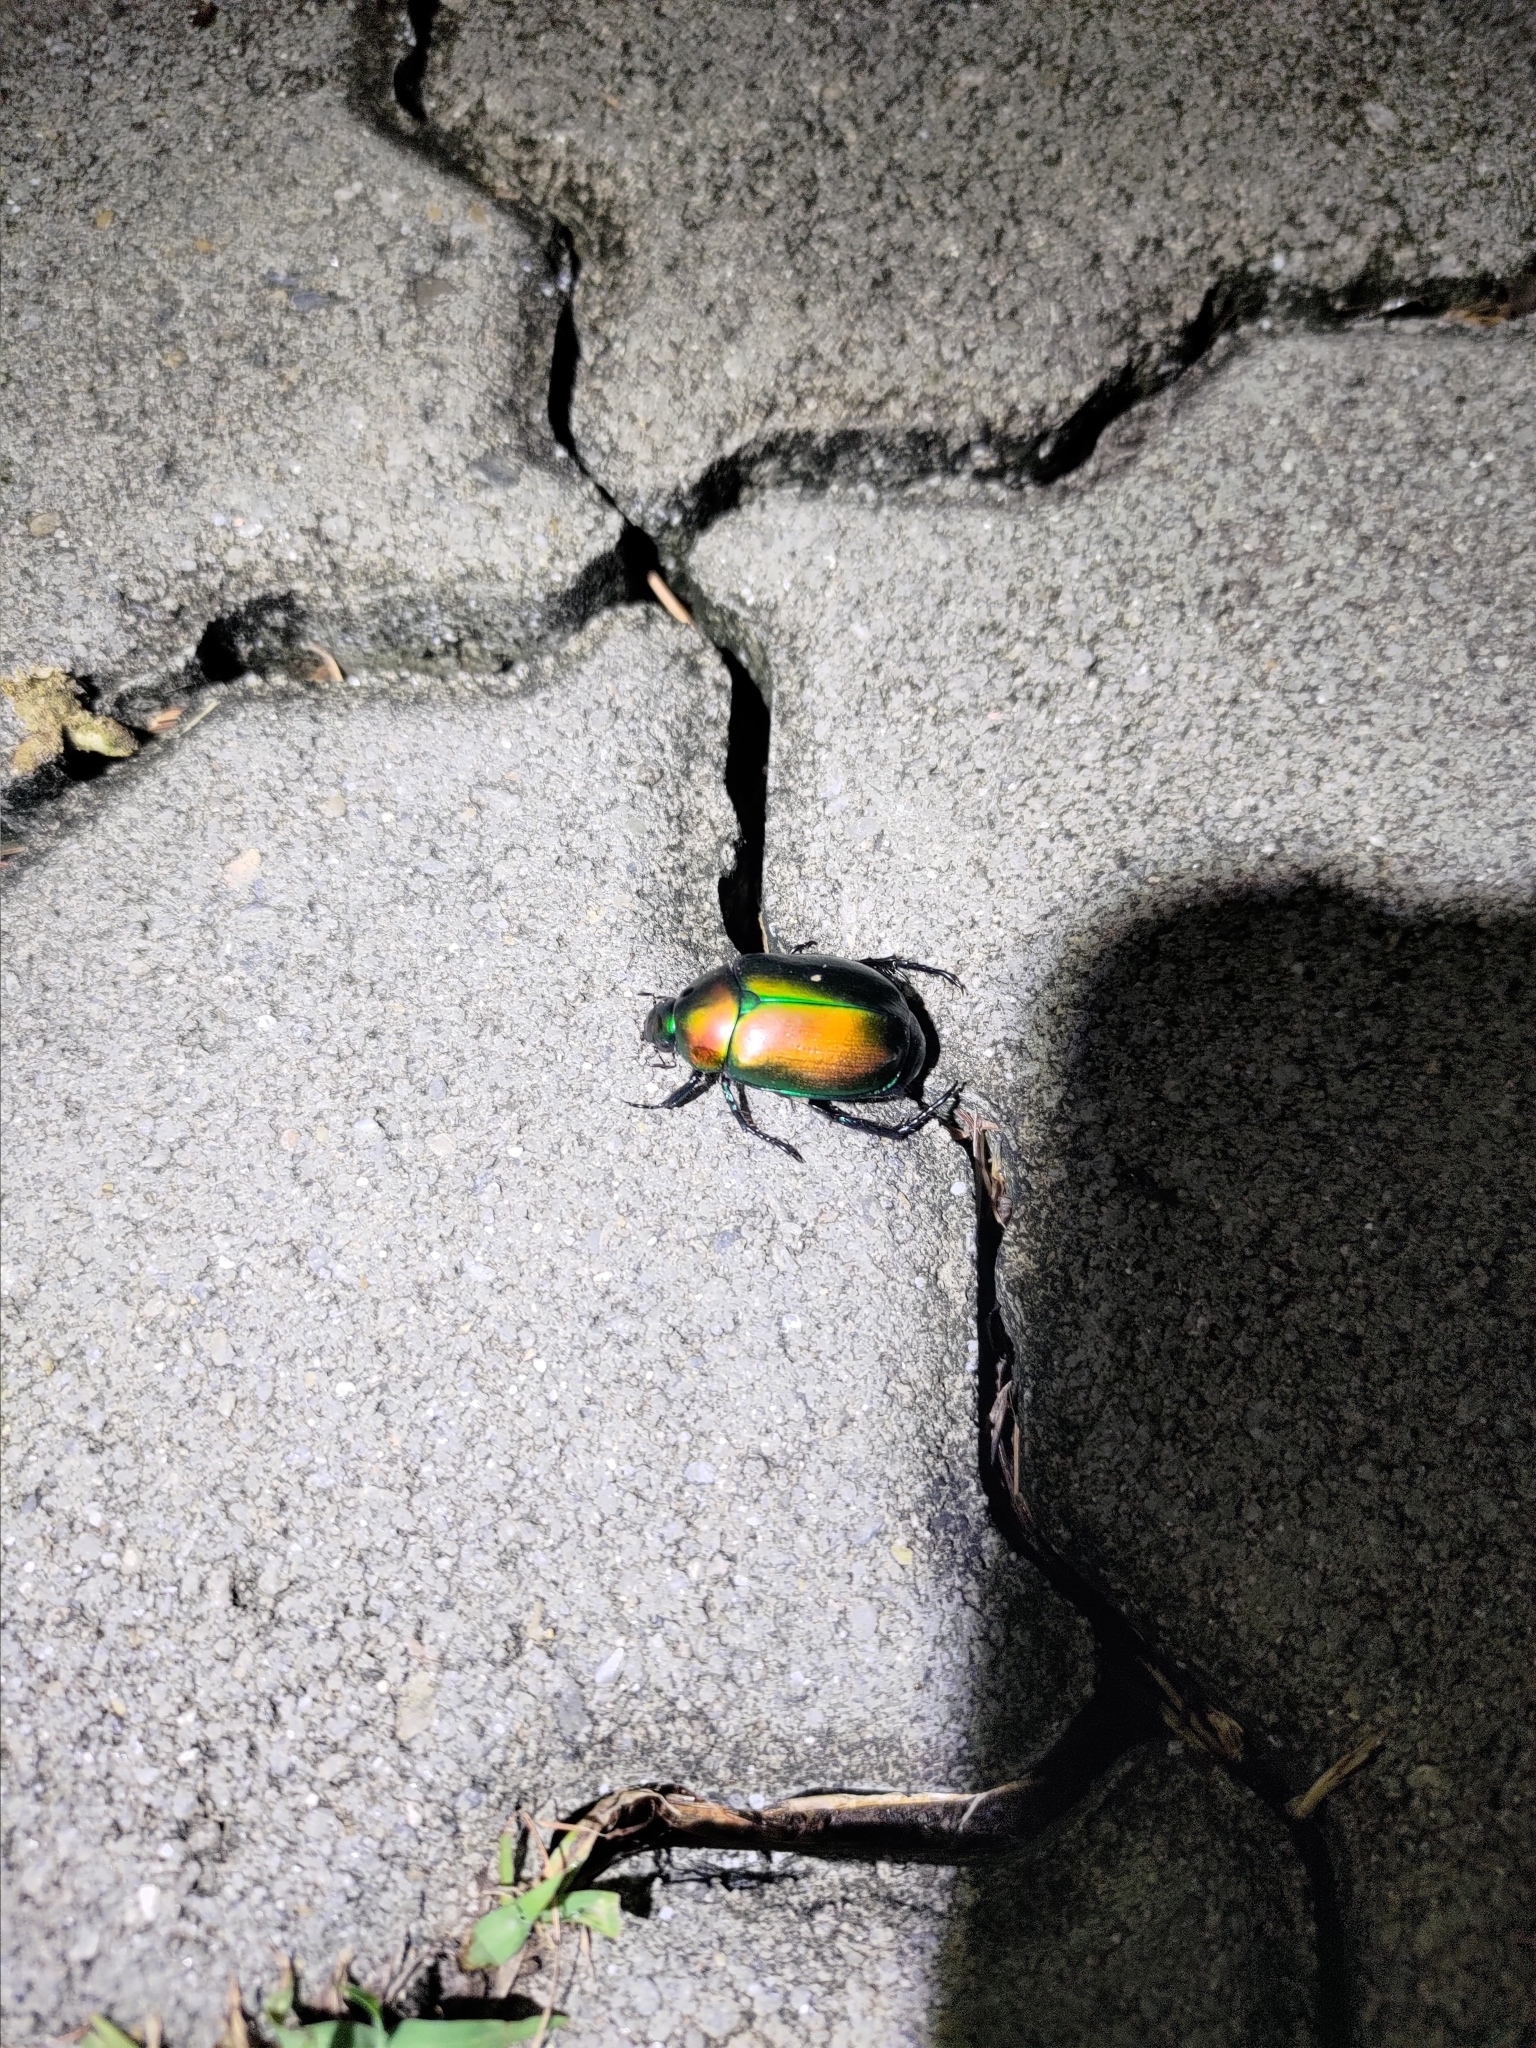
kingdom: Animalia
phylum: Arthropoda
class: Insecta
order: Coleoptera
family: Scarabaeidae
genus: Anomala
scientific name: Anomala expansa
